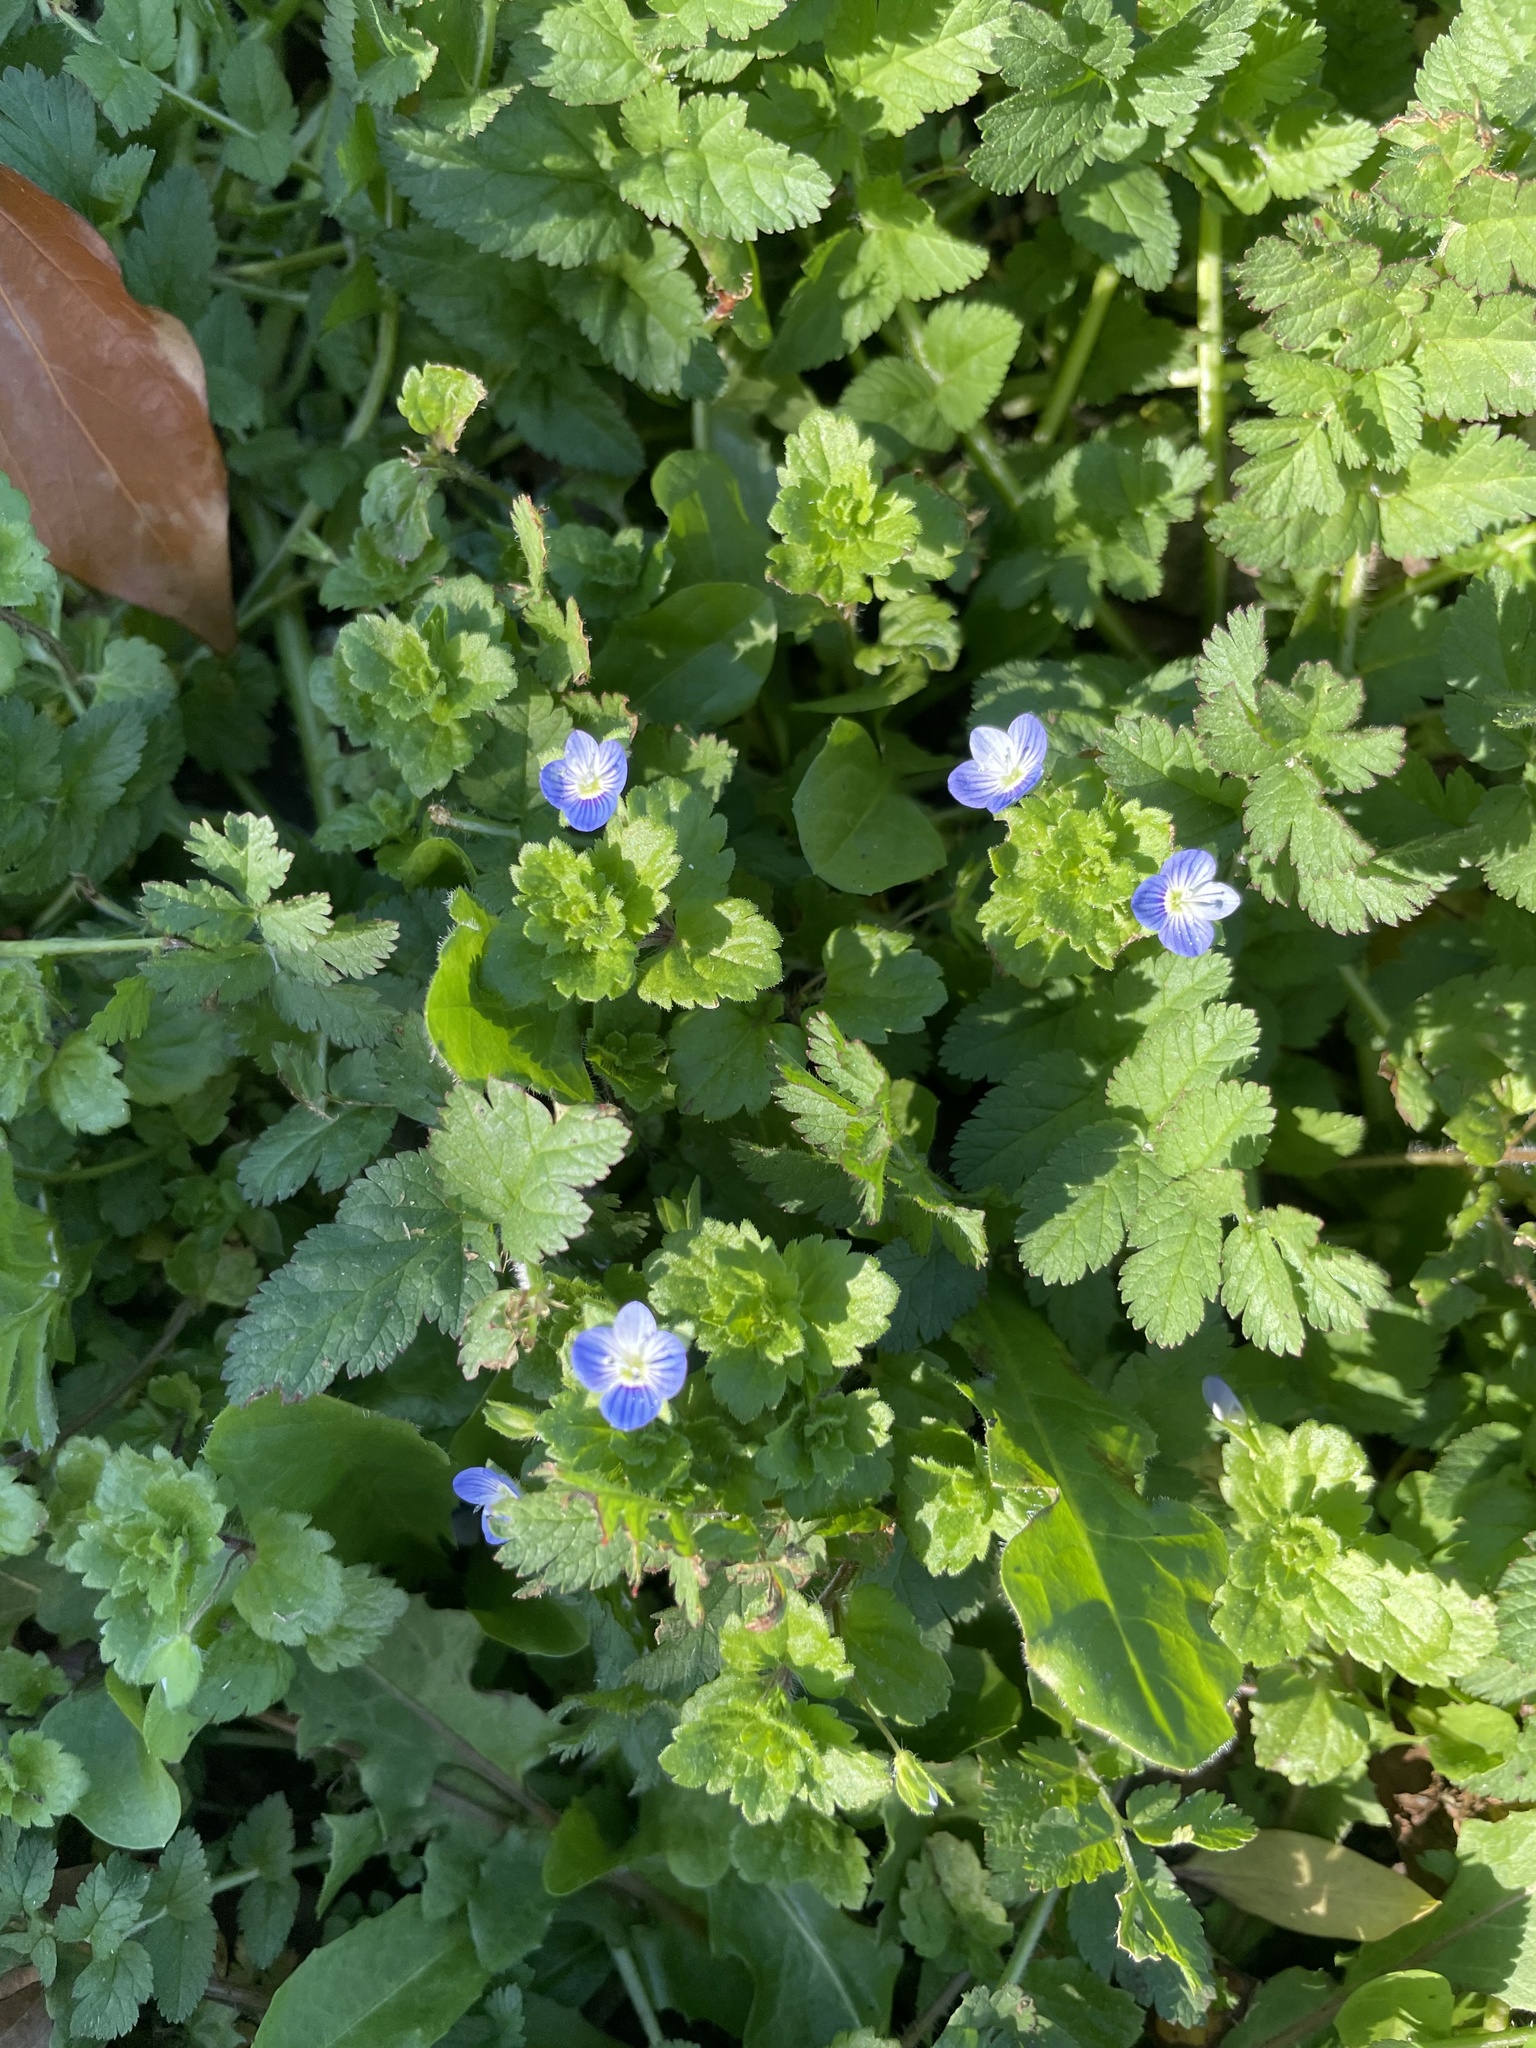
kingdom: Plantae
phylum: Tracheophyta
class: Magnoliopsida
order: Lamiales
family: Plantaginaceae
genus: Veronica
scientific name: Veronica persica
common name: Common field-speedwell
